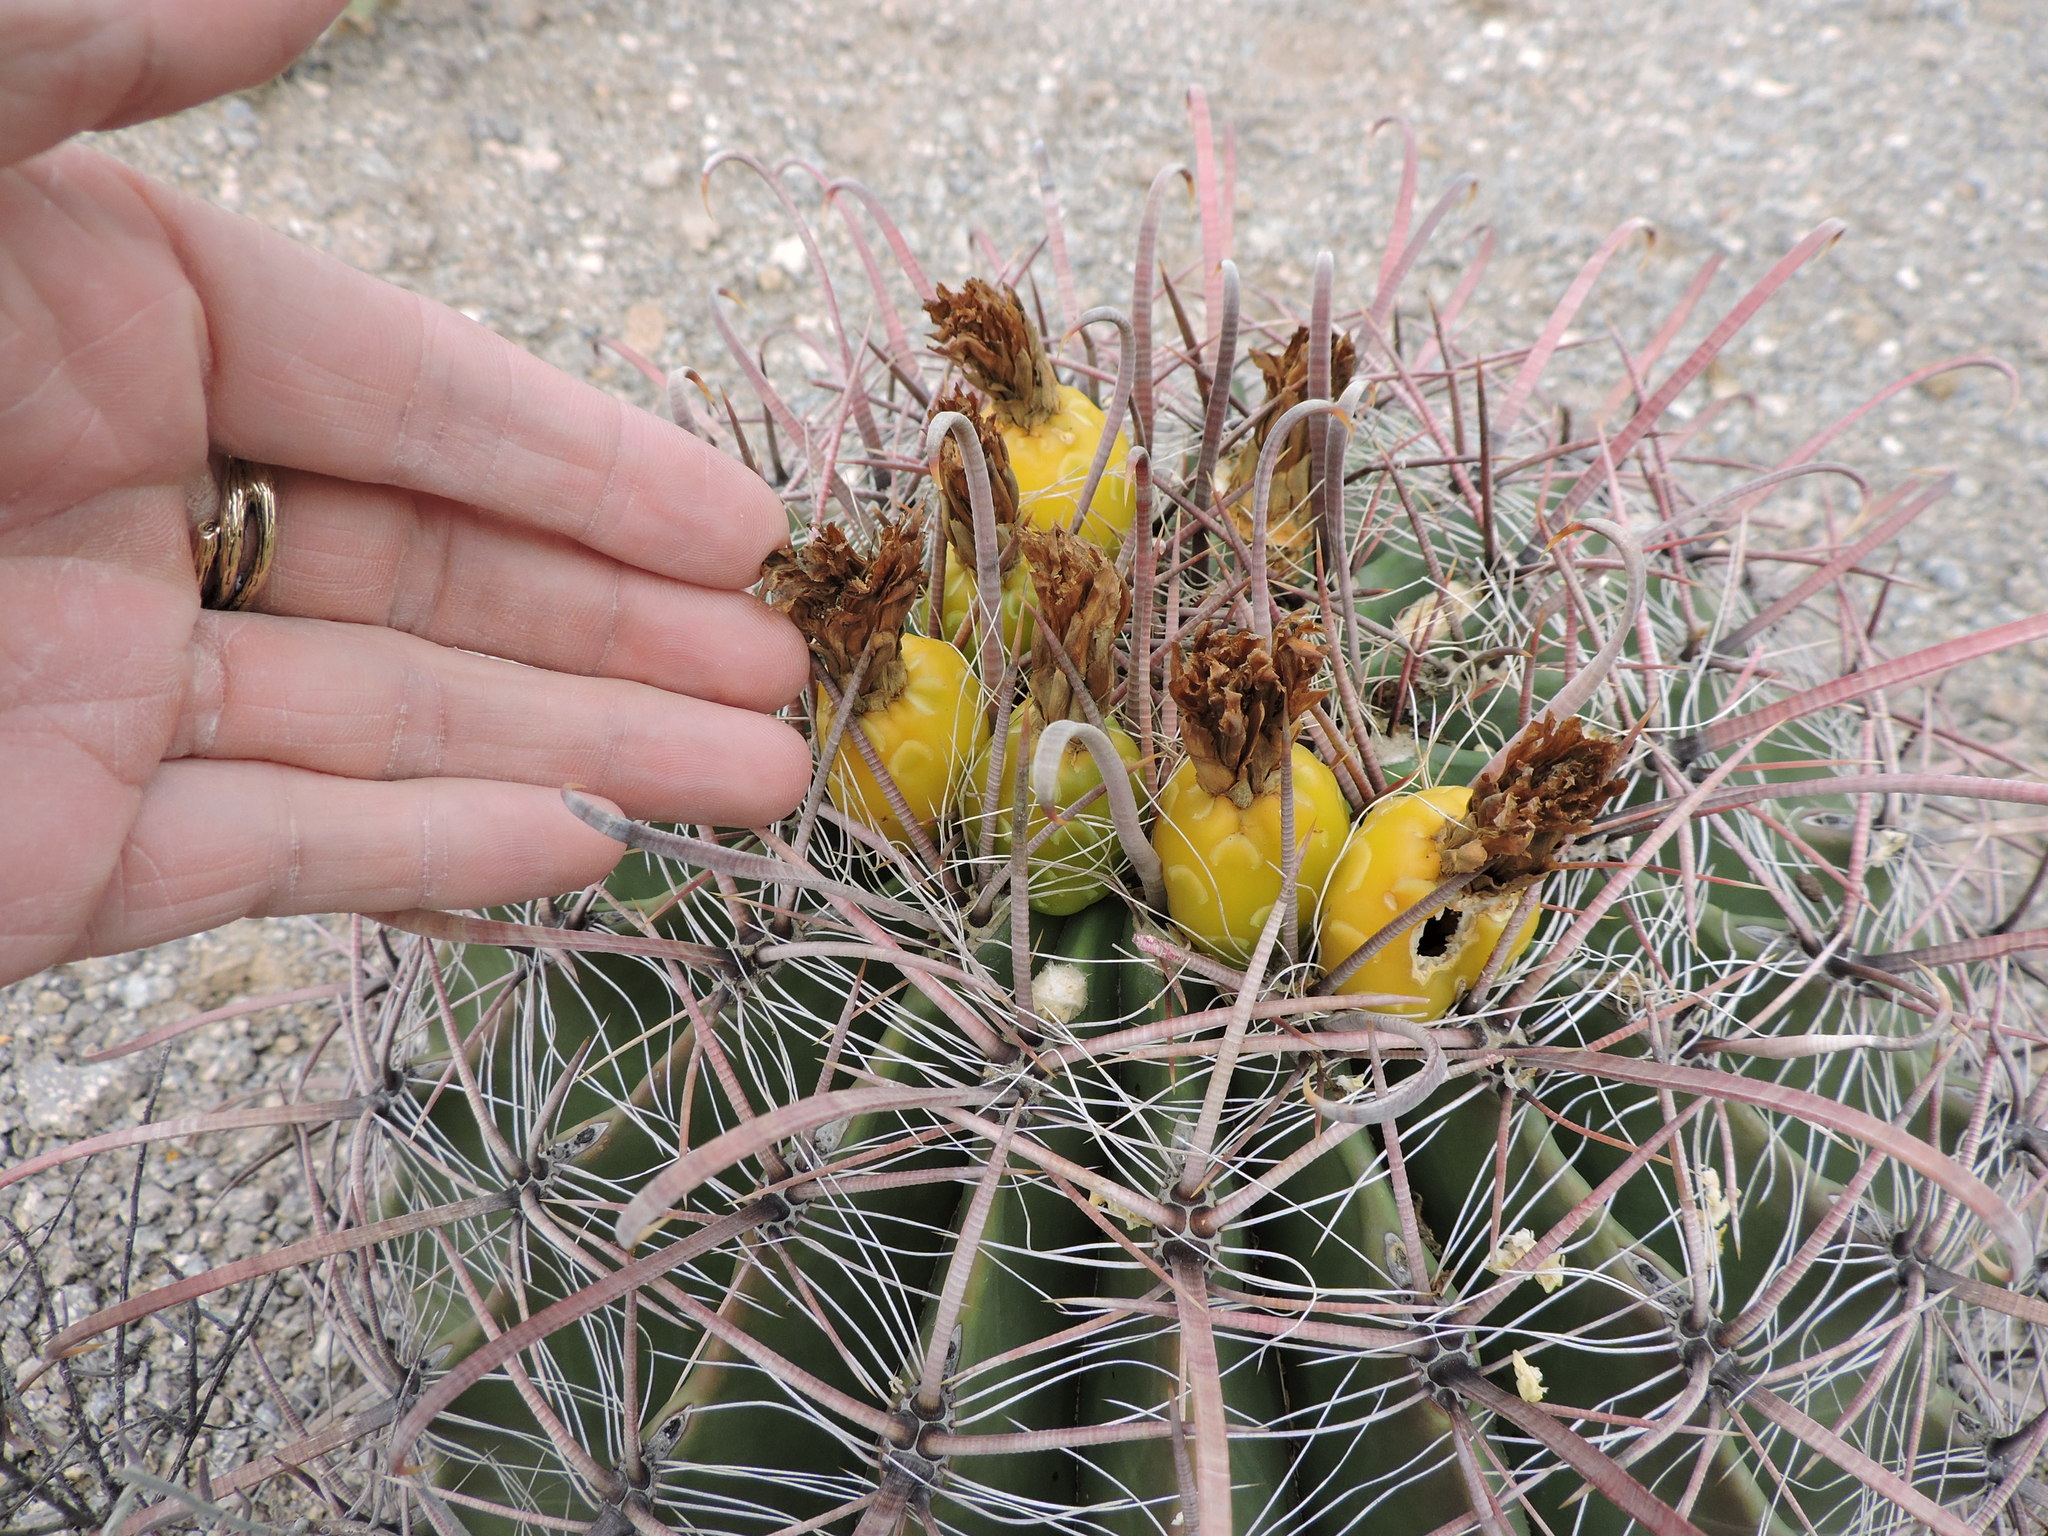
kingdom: Plantae
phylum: Tracheophyta
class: Magnoliopsida
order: Caryophyllales
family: Cactaceae
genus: Ferocactus
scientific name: Ferocactus wislizeni
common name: Candy barrel cactus
